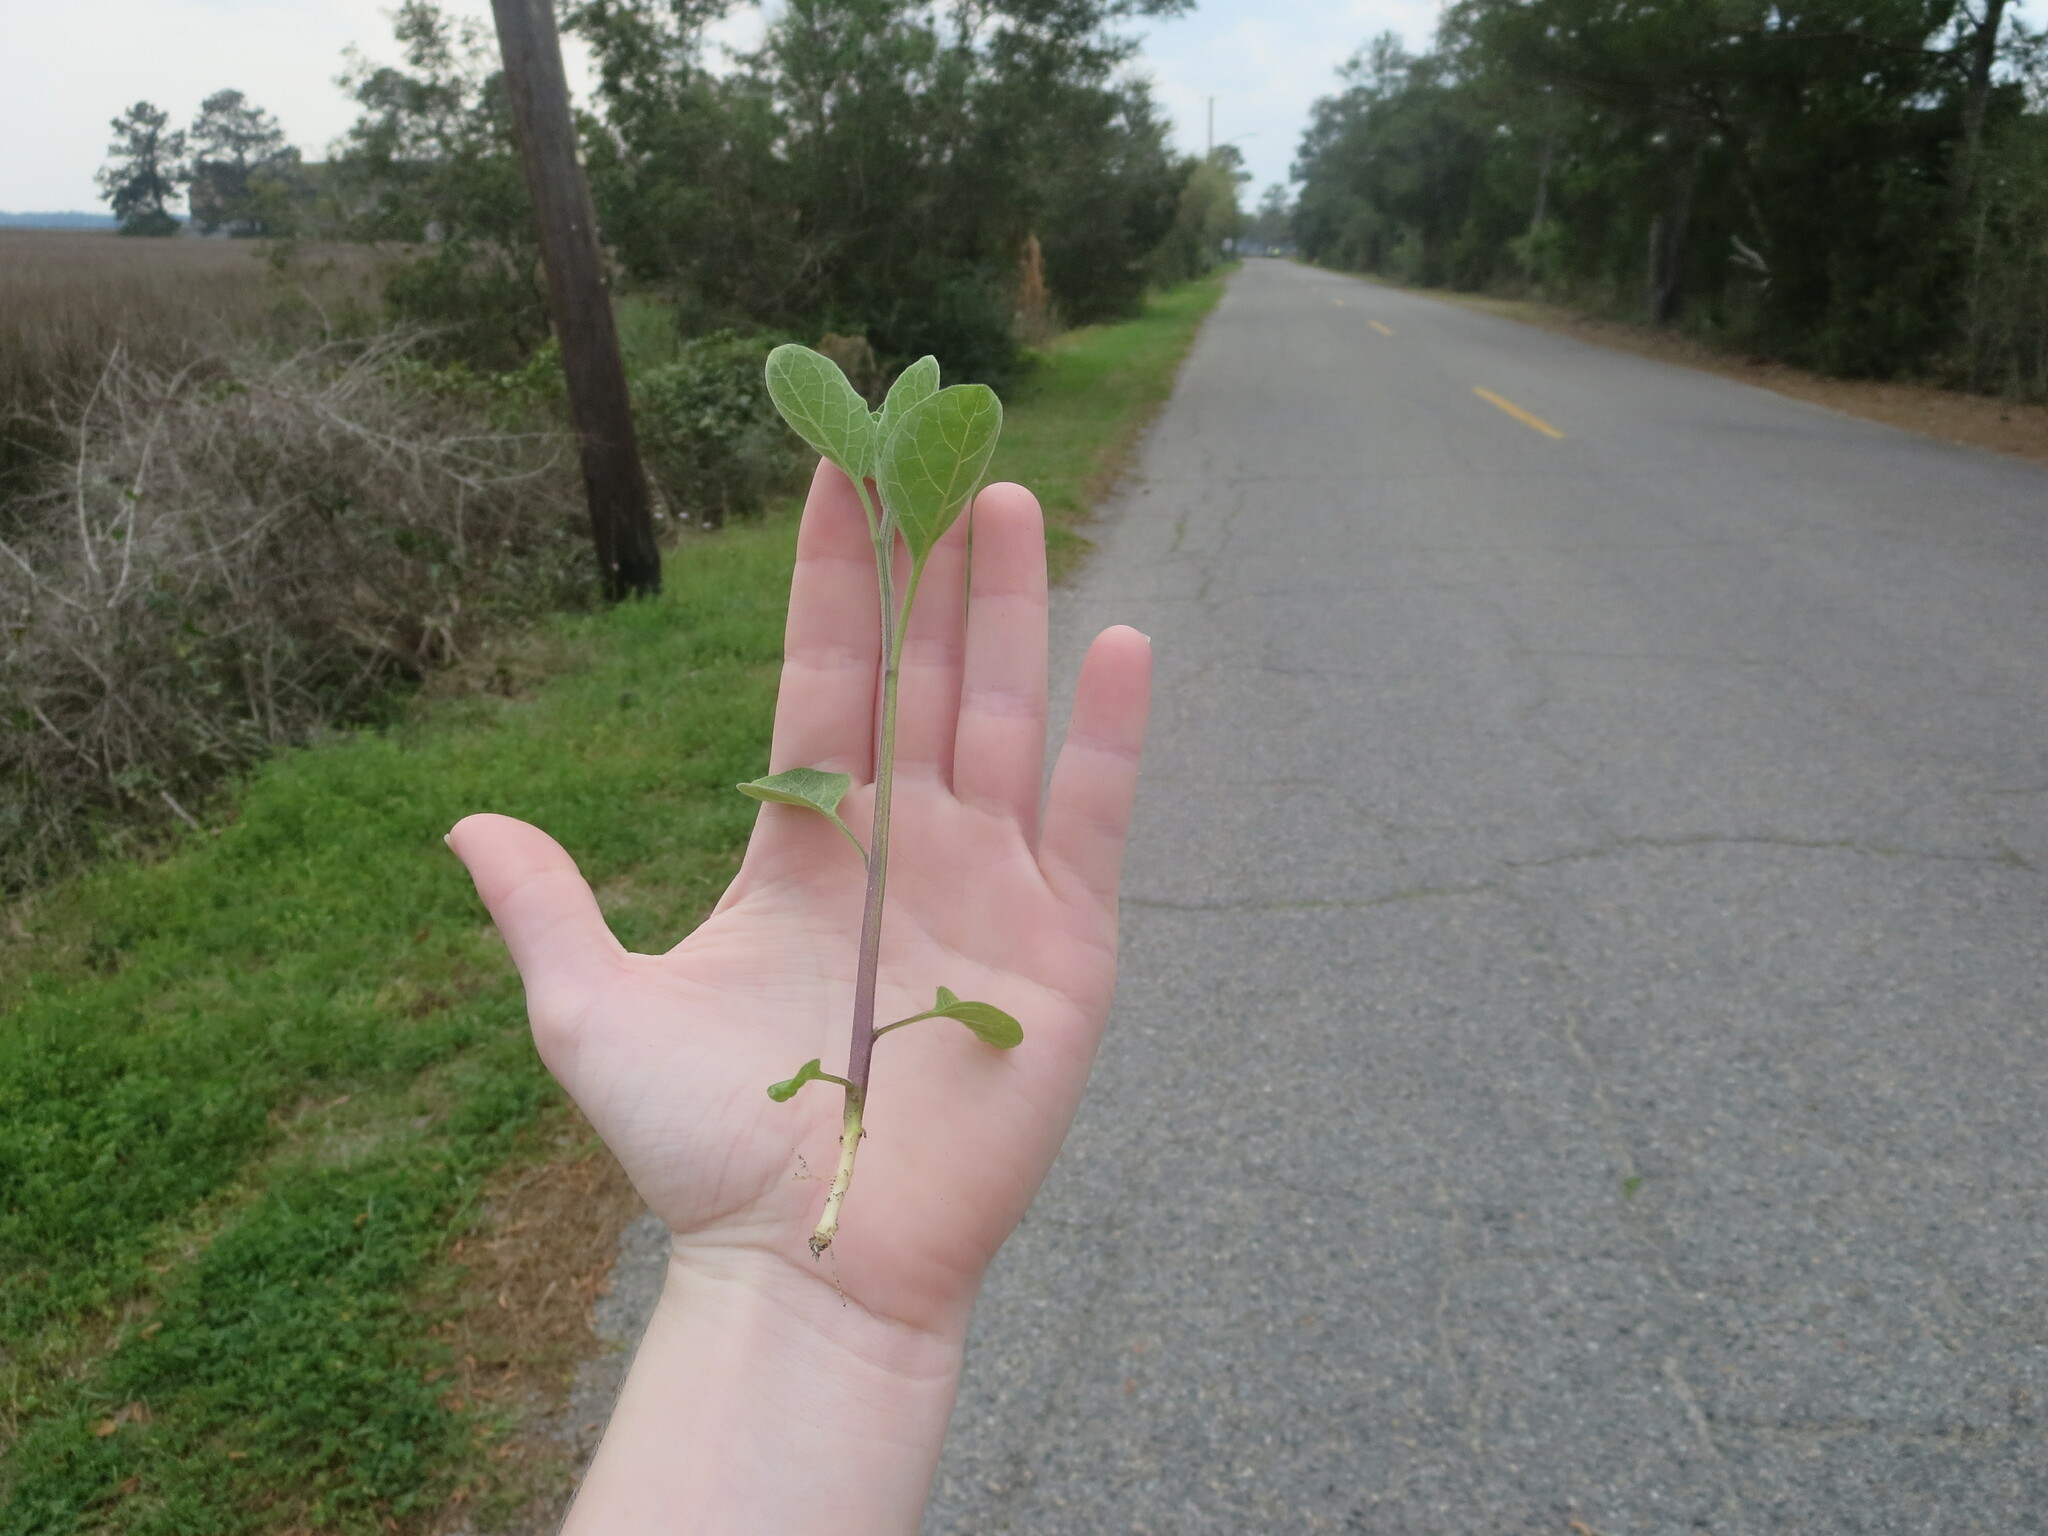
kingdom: Plantae
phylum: Tracheophyta
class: Magnoliopsida
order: Solanales
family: Solanaceae
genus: Physalis
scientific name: Physalis walteri
